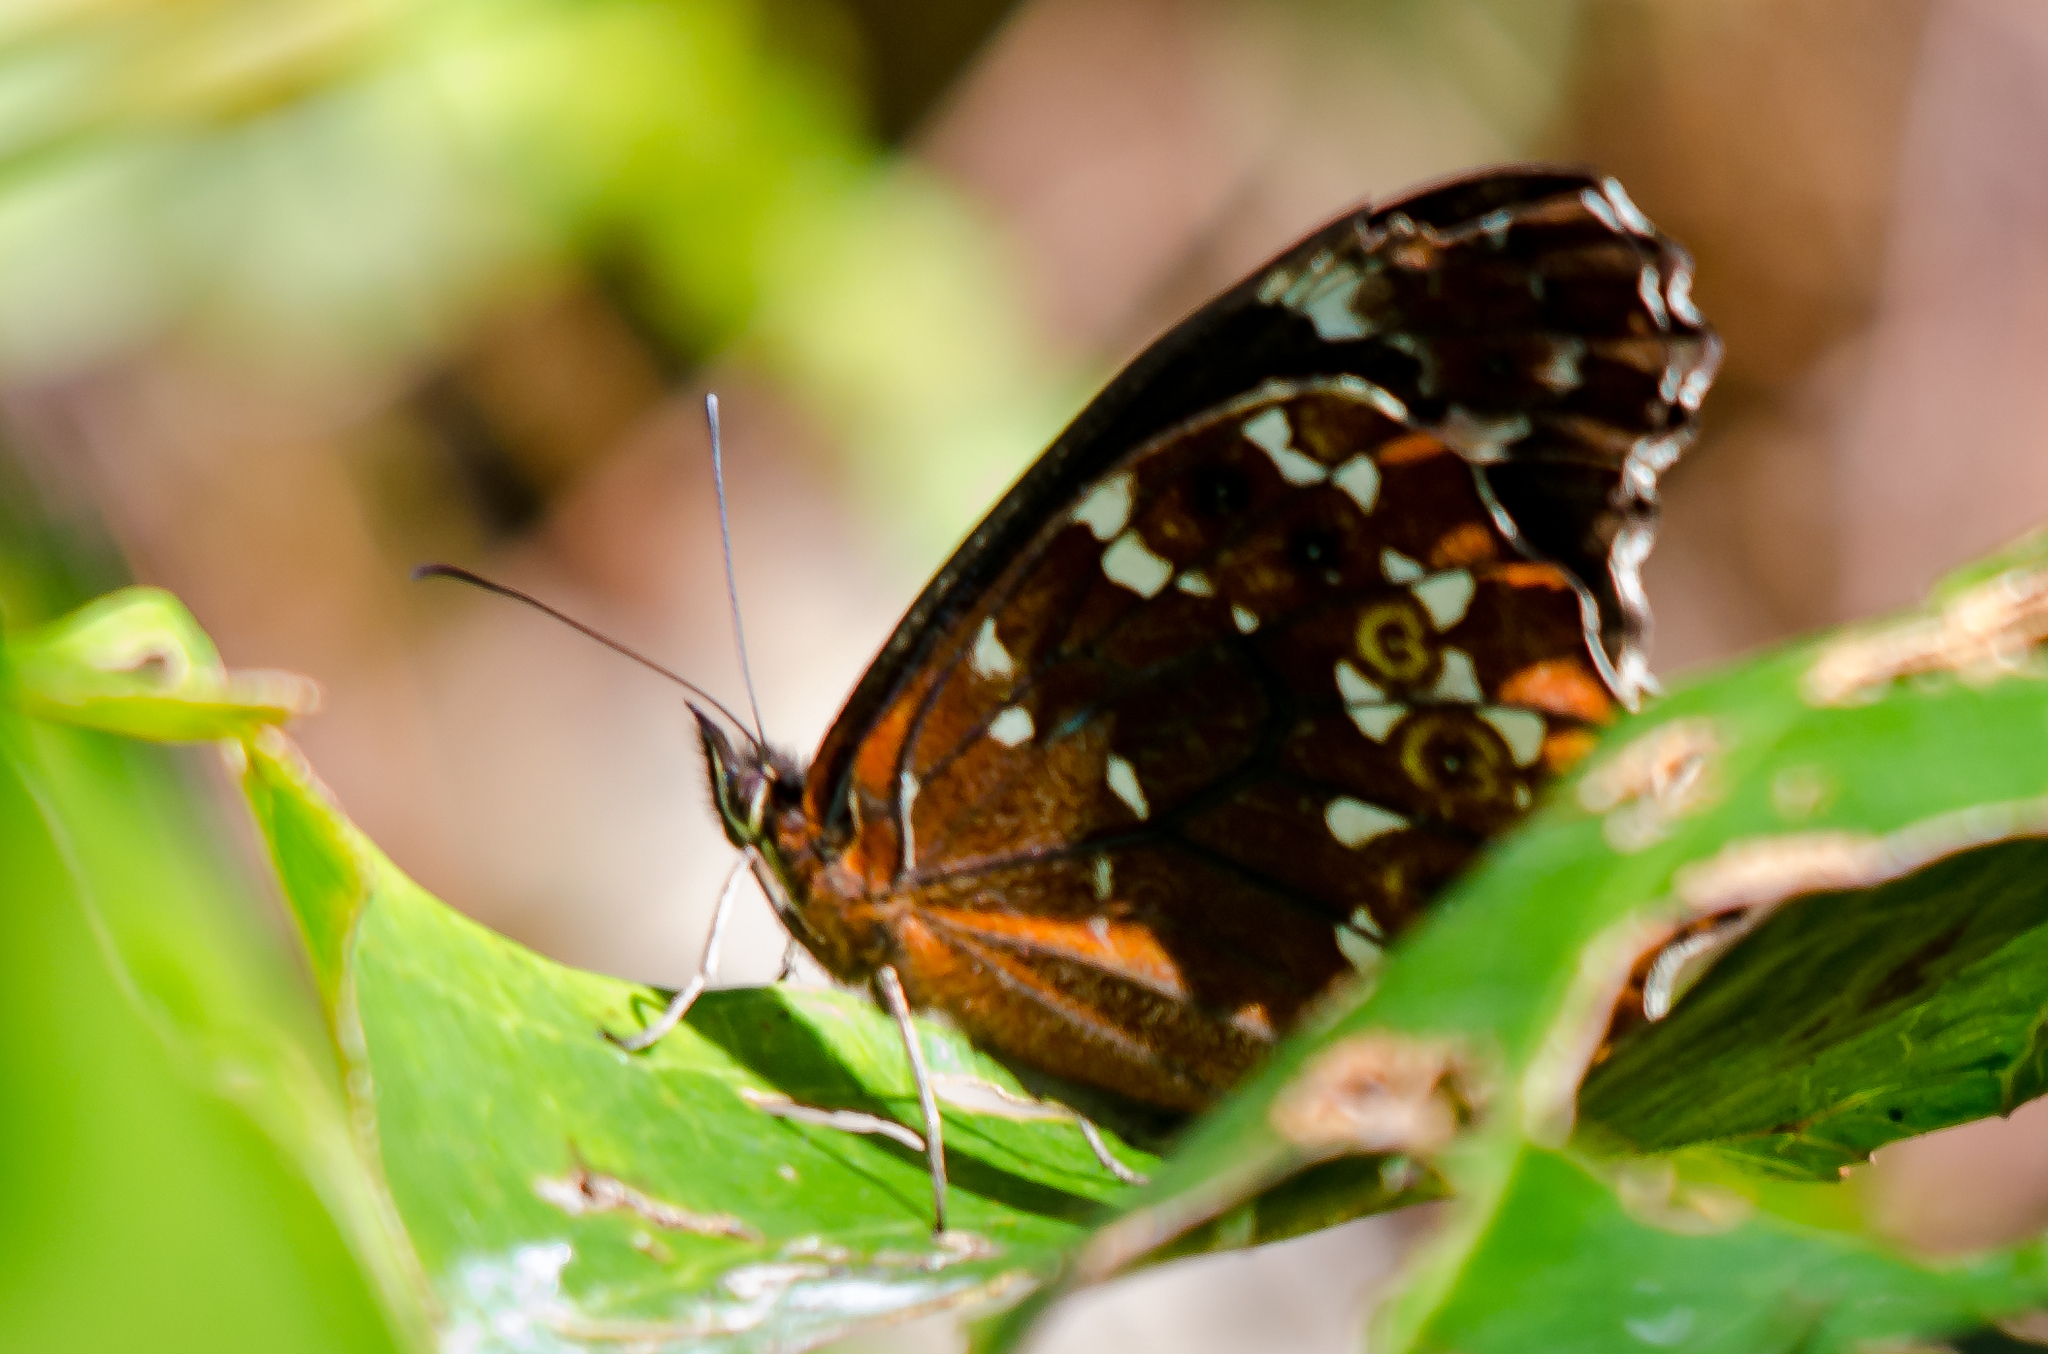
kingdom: Animalia
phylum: Arthropoda
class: Insecta
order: Lepidoptera
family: Nymphalidae
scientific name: Nymphalidae
